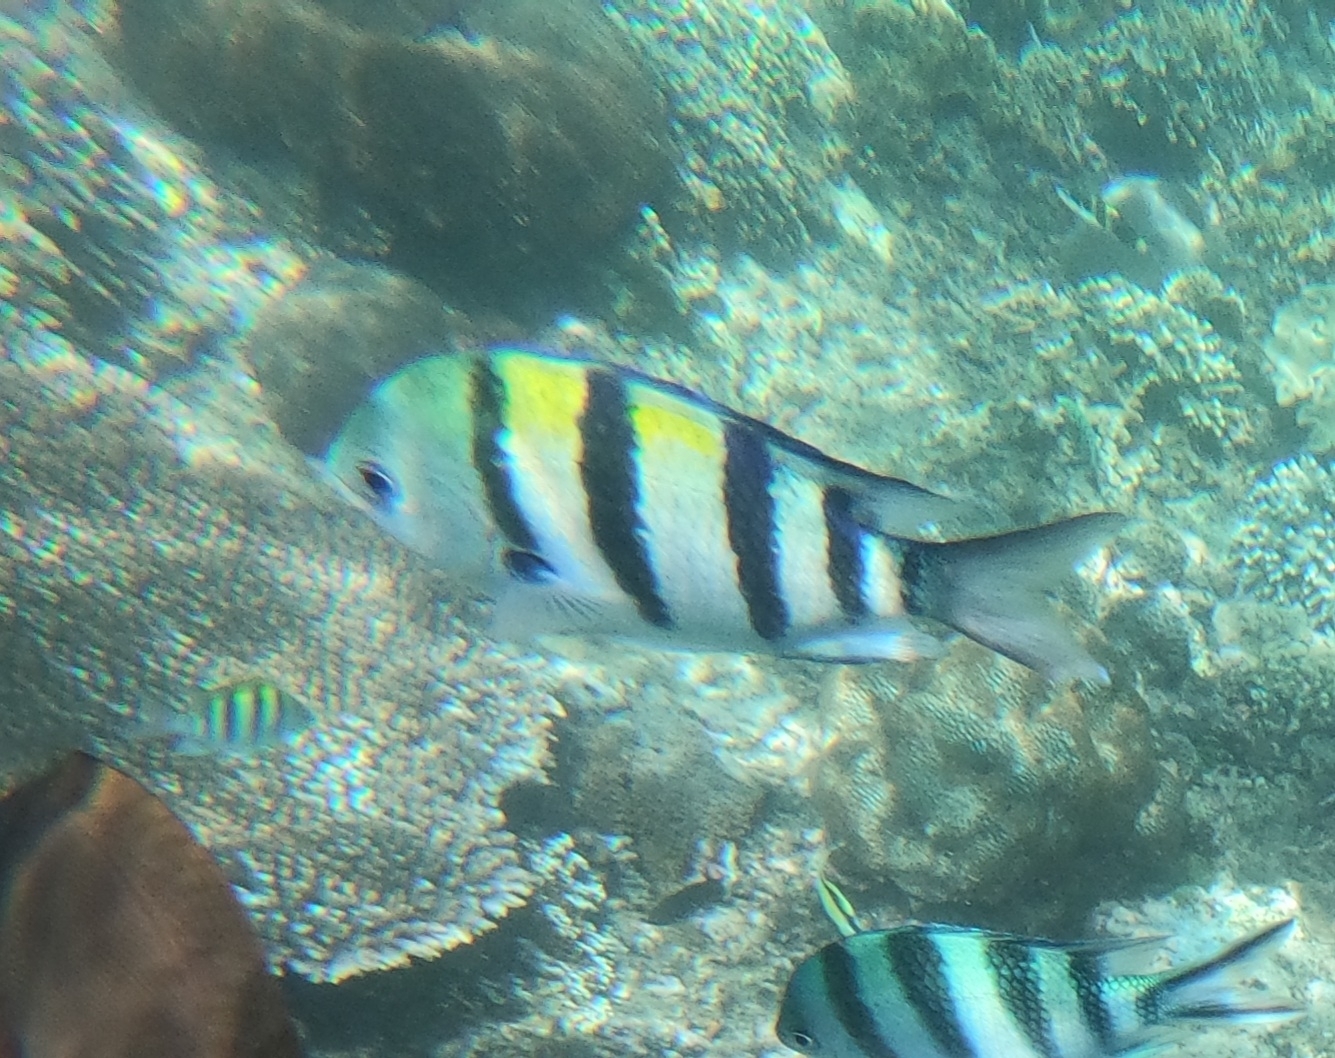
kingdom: Animalia
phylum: Chordata
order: Perciformes
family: Pomacentridae
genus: Abudefduf
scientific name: Abudefduf vaigiensis
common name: Indo-pacific sergeant
